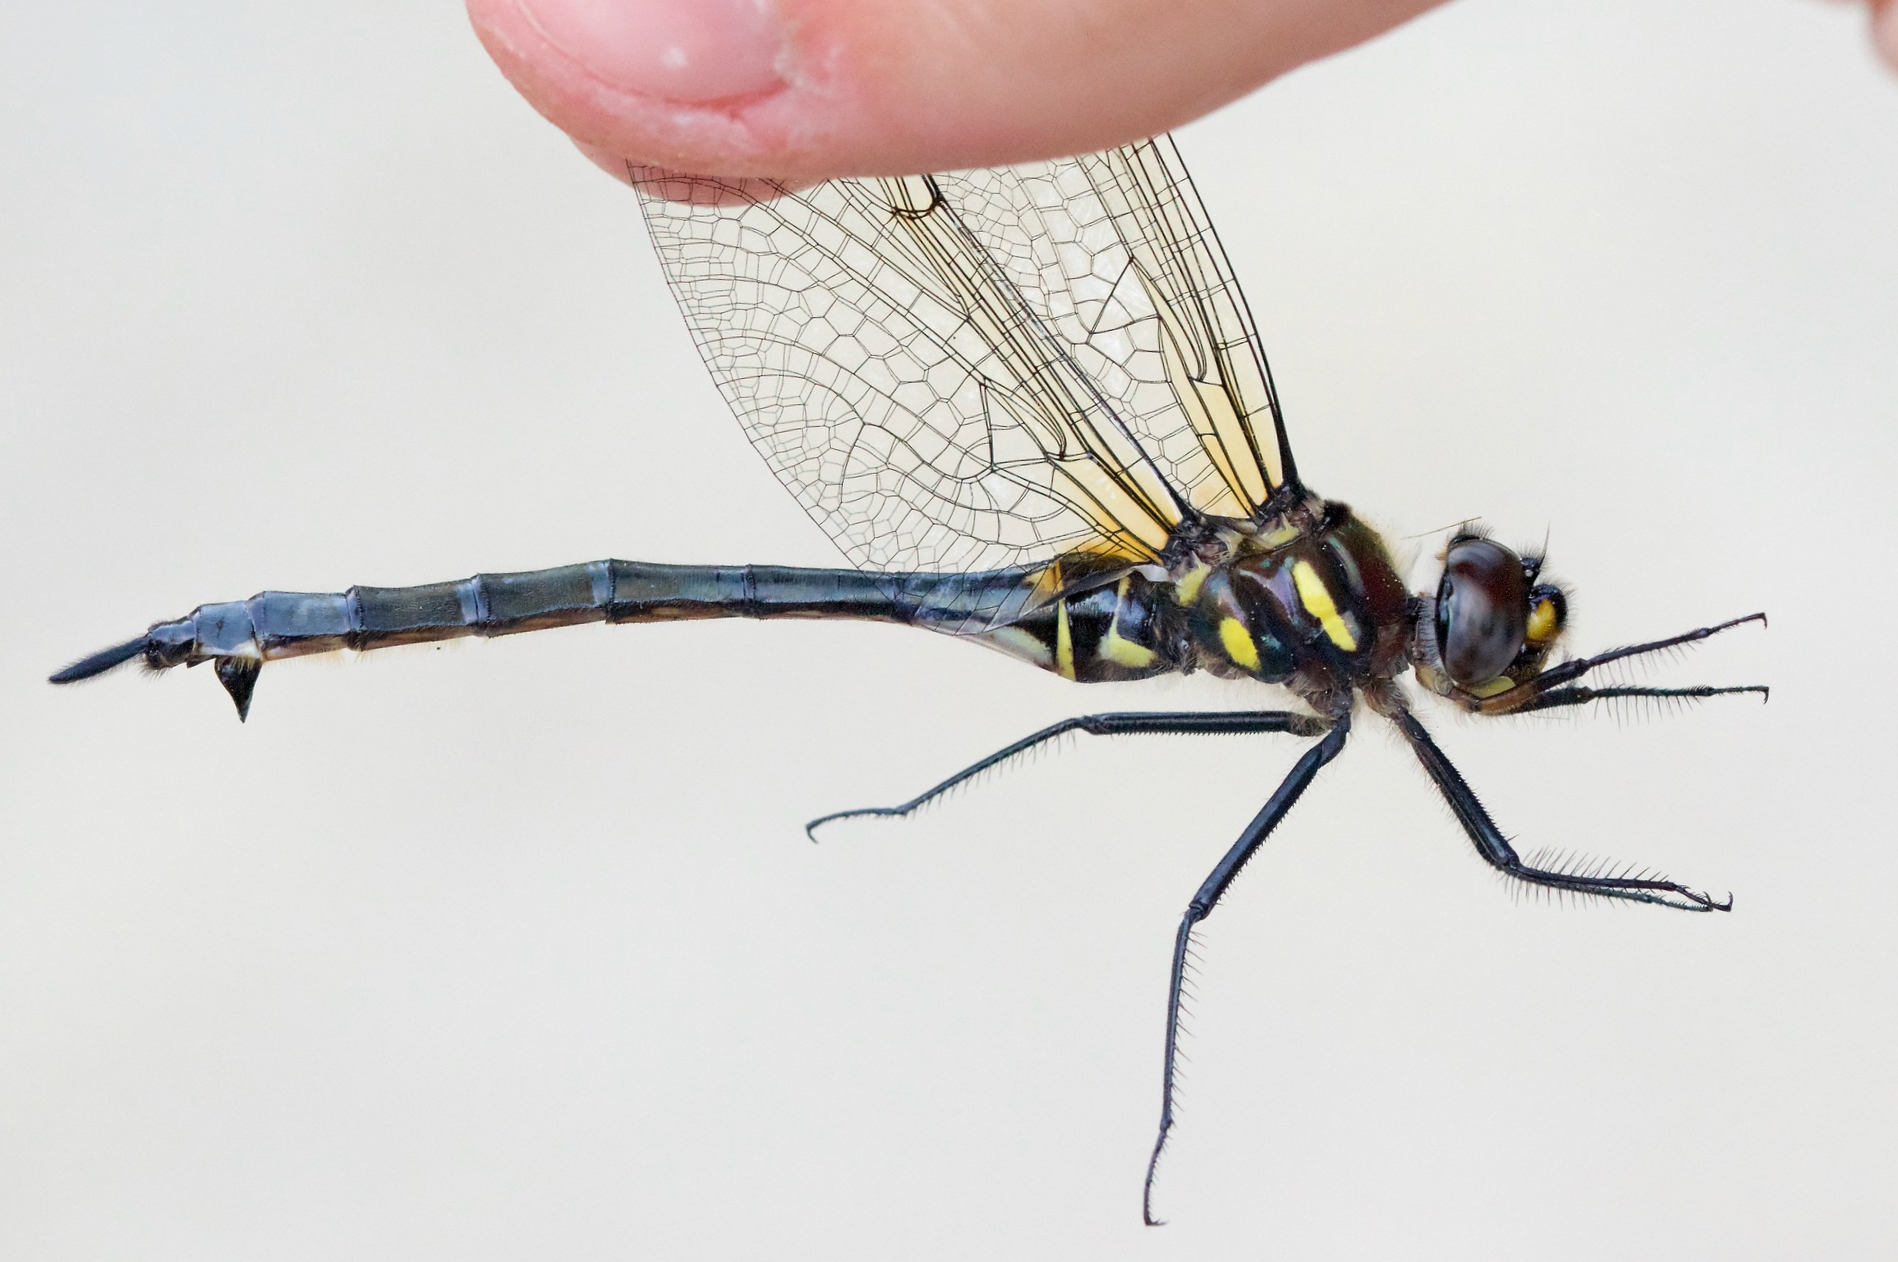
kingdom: Animalia
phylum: Arthropoda
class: Insecta
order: Odonata
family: Corduliidae
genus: Somatochlora
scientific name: Somatochlora elongata
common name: Ski-tipped emerald
